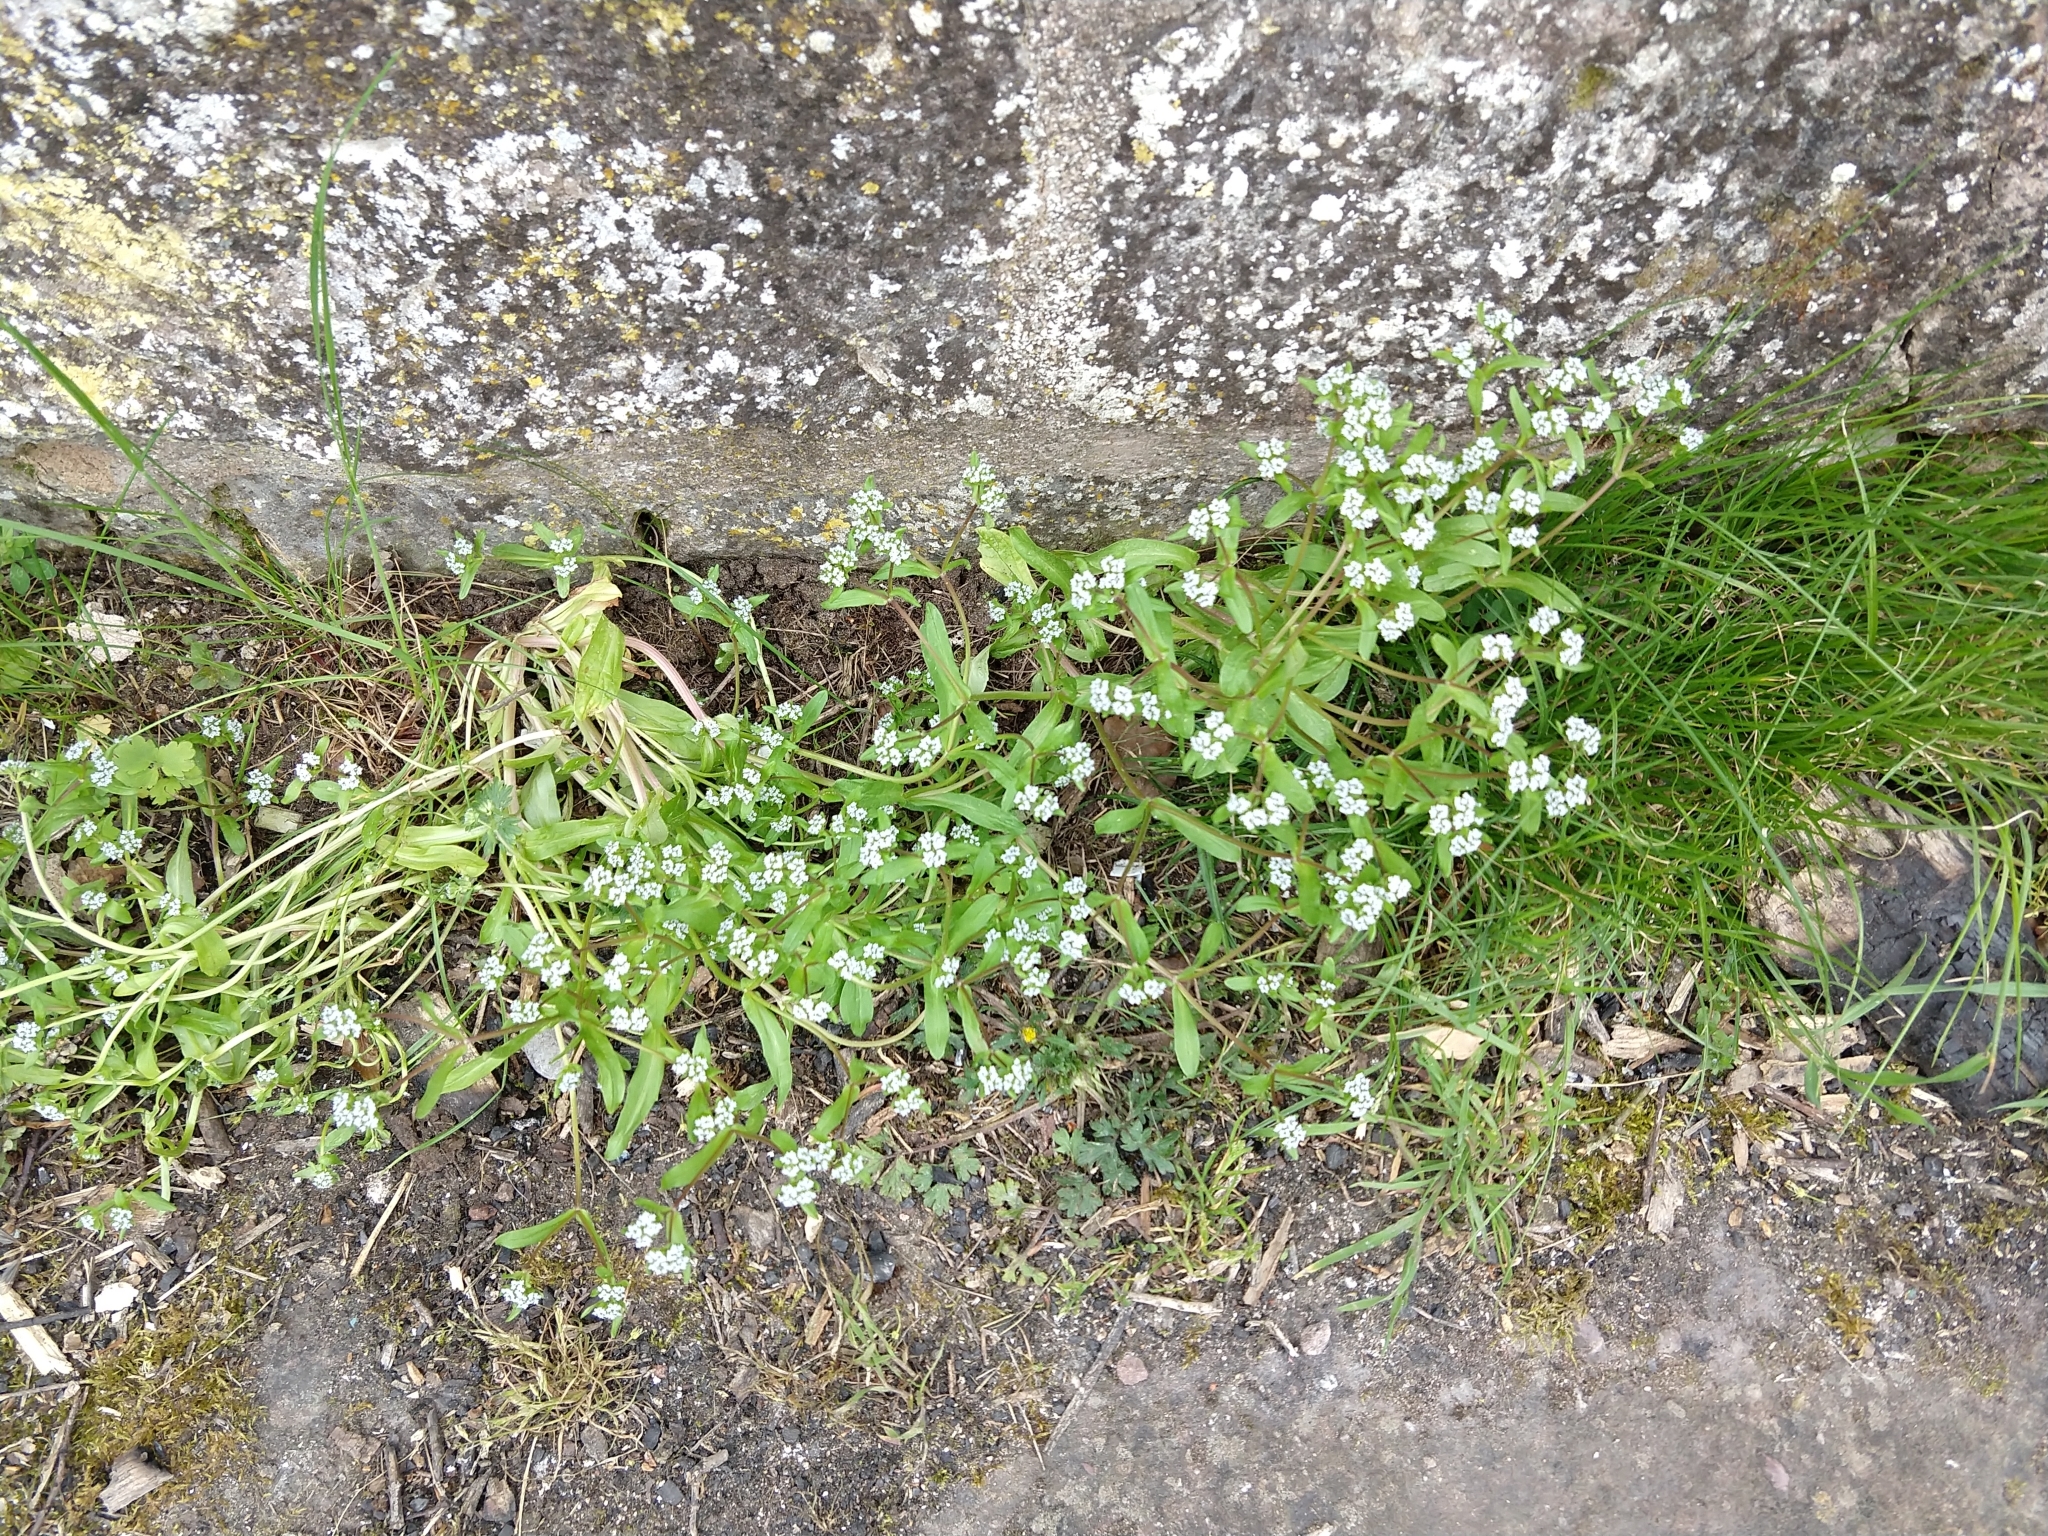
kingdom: Plantae
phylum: Tracheophyta
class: Magnoliopsida
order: Dipsacales
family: Caprifoliaceae
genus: Valerianella
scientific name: Valerianella locusta
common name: Common cornsalad
